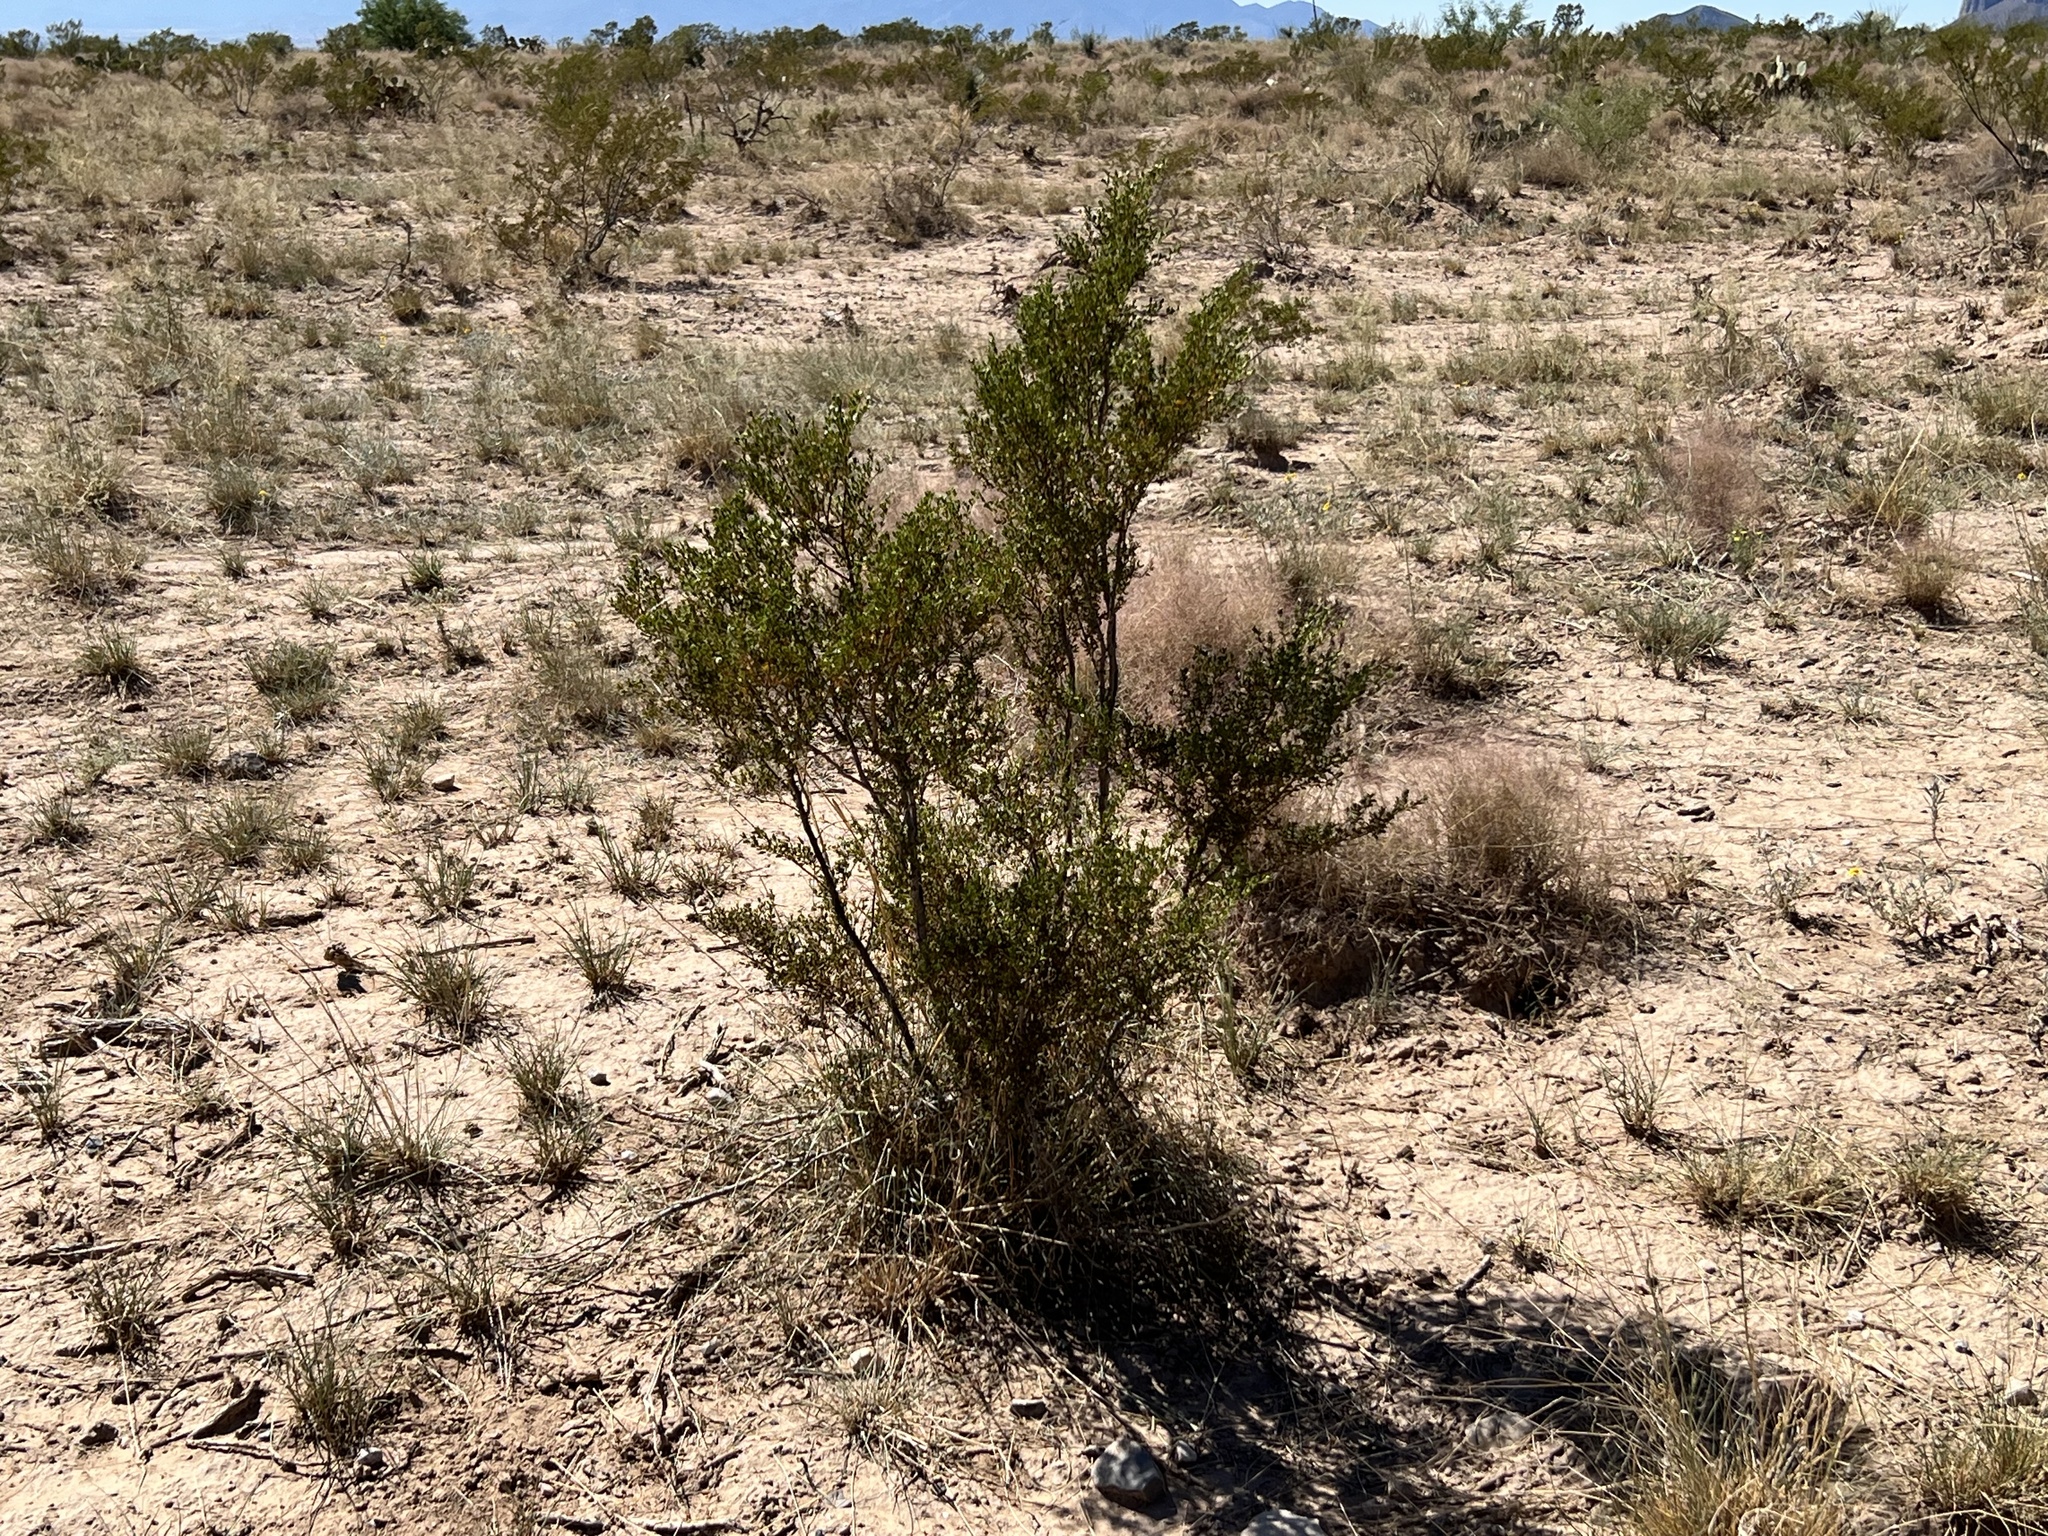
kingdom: Plantae
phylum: Tracheophyta
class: Magnoliopsida
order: Zygophyllales
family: Zygophyllaceae
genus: Larrea
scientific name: Larrea tridentata
